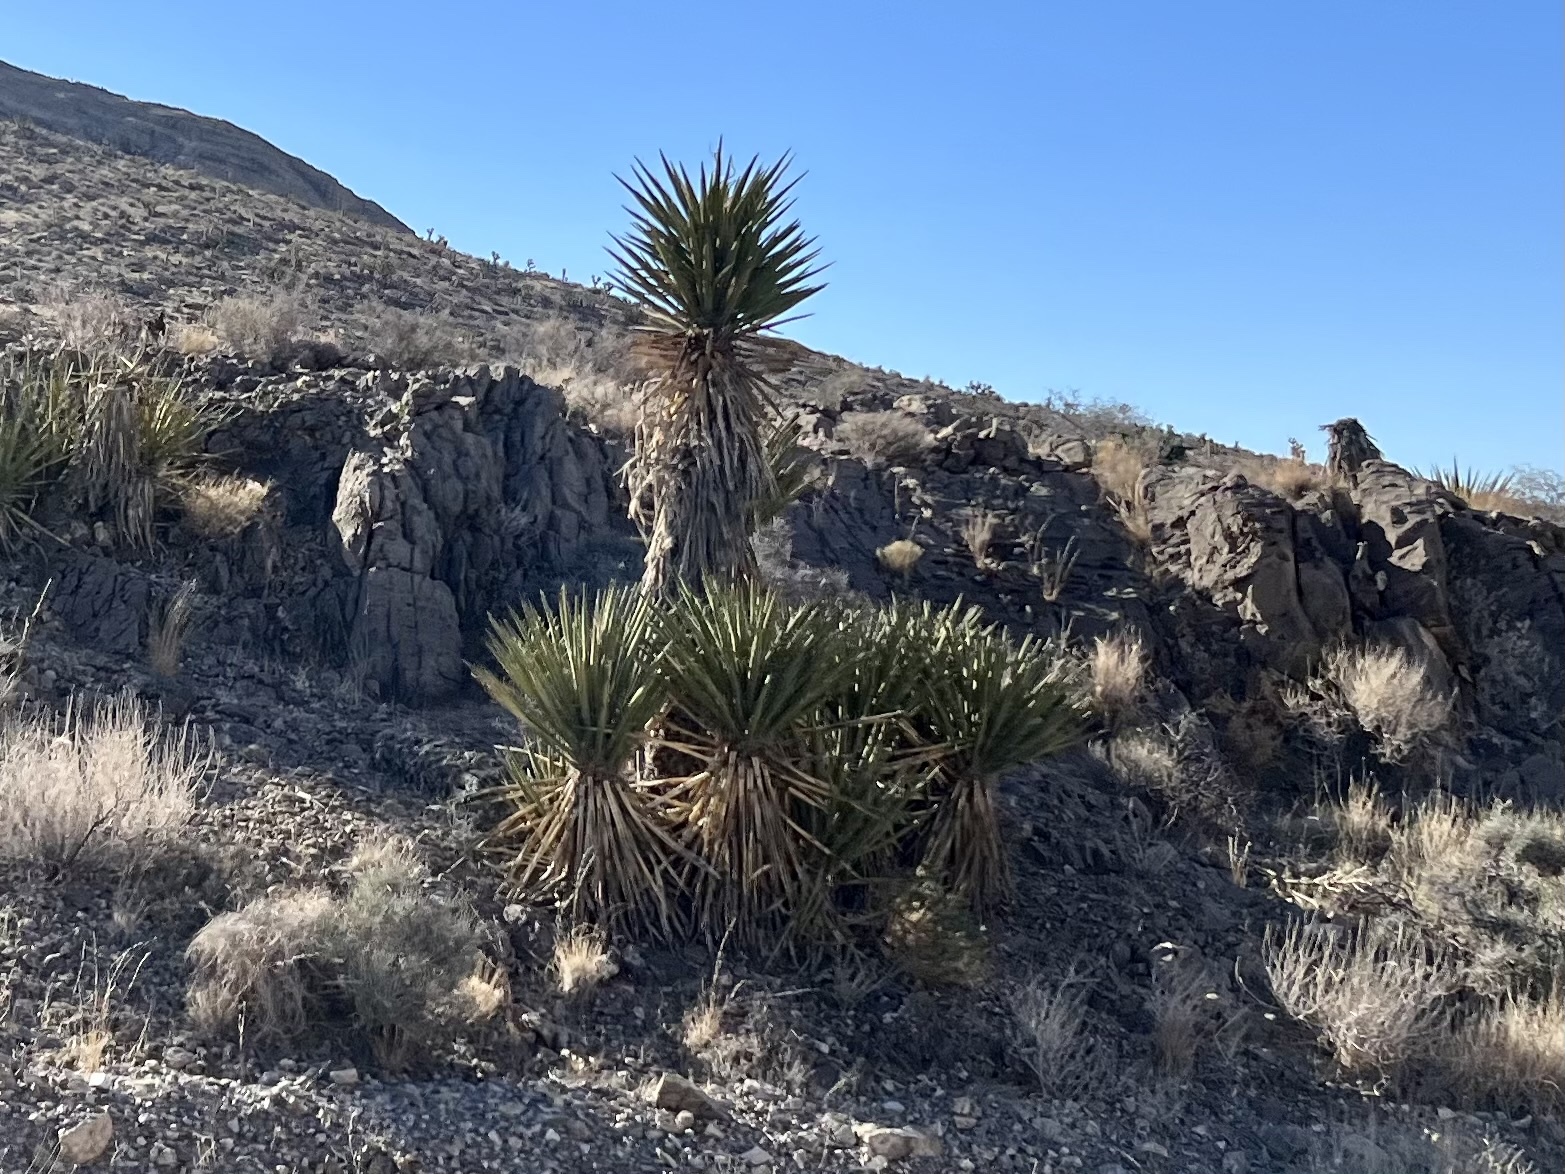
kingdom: Plantae
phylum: Tracheophyta
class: Liliopsida
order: Asparagales
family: Asparagaceae
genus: Yucca
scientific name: Yucca schidigera
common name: Mojave yucca
